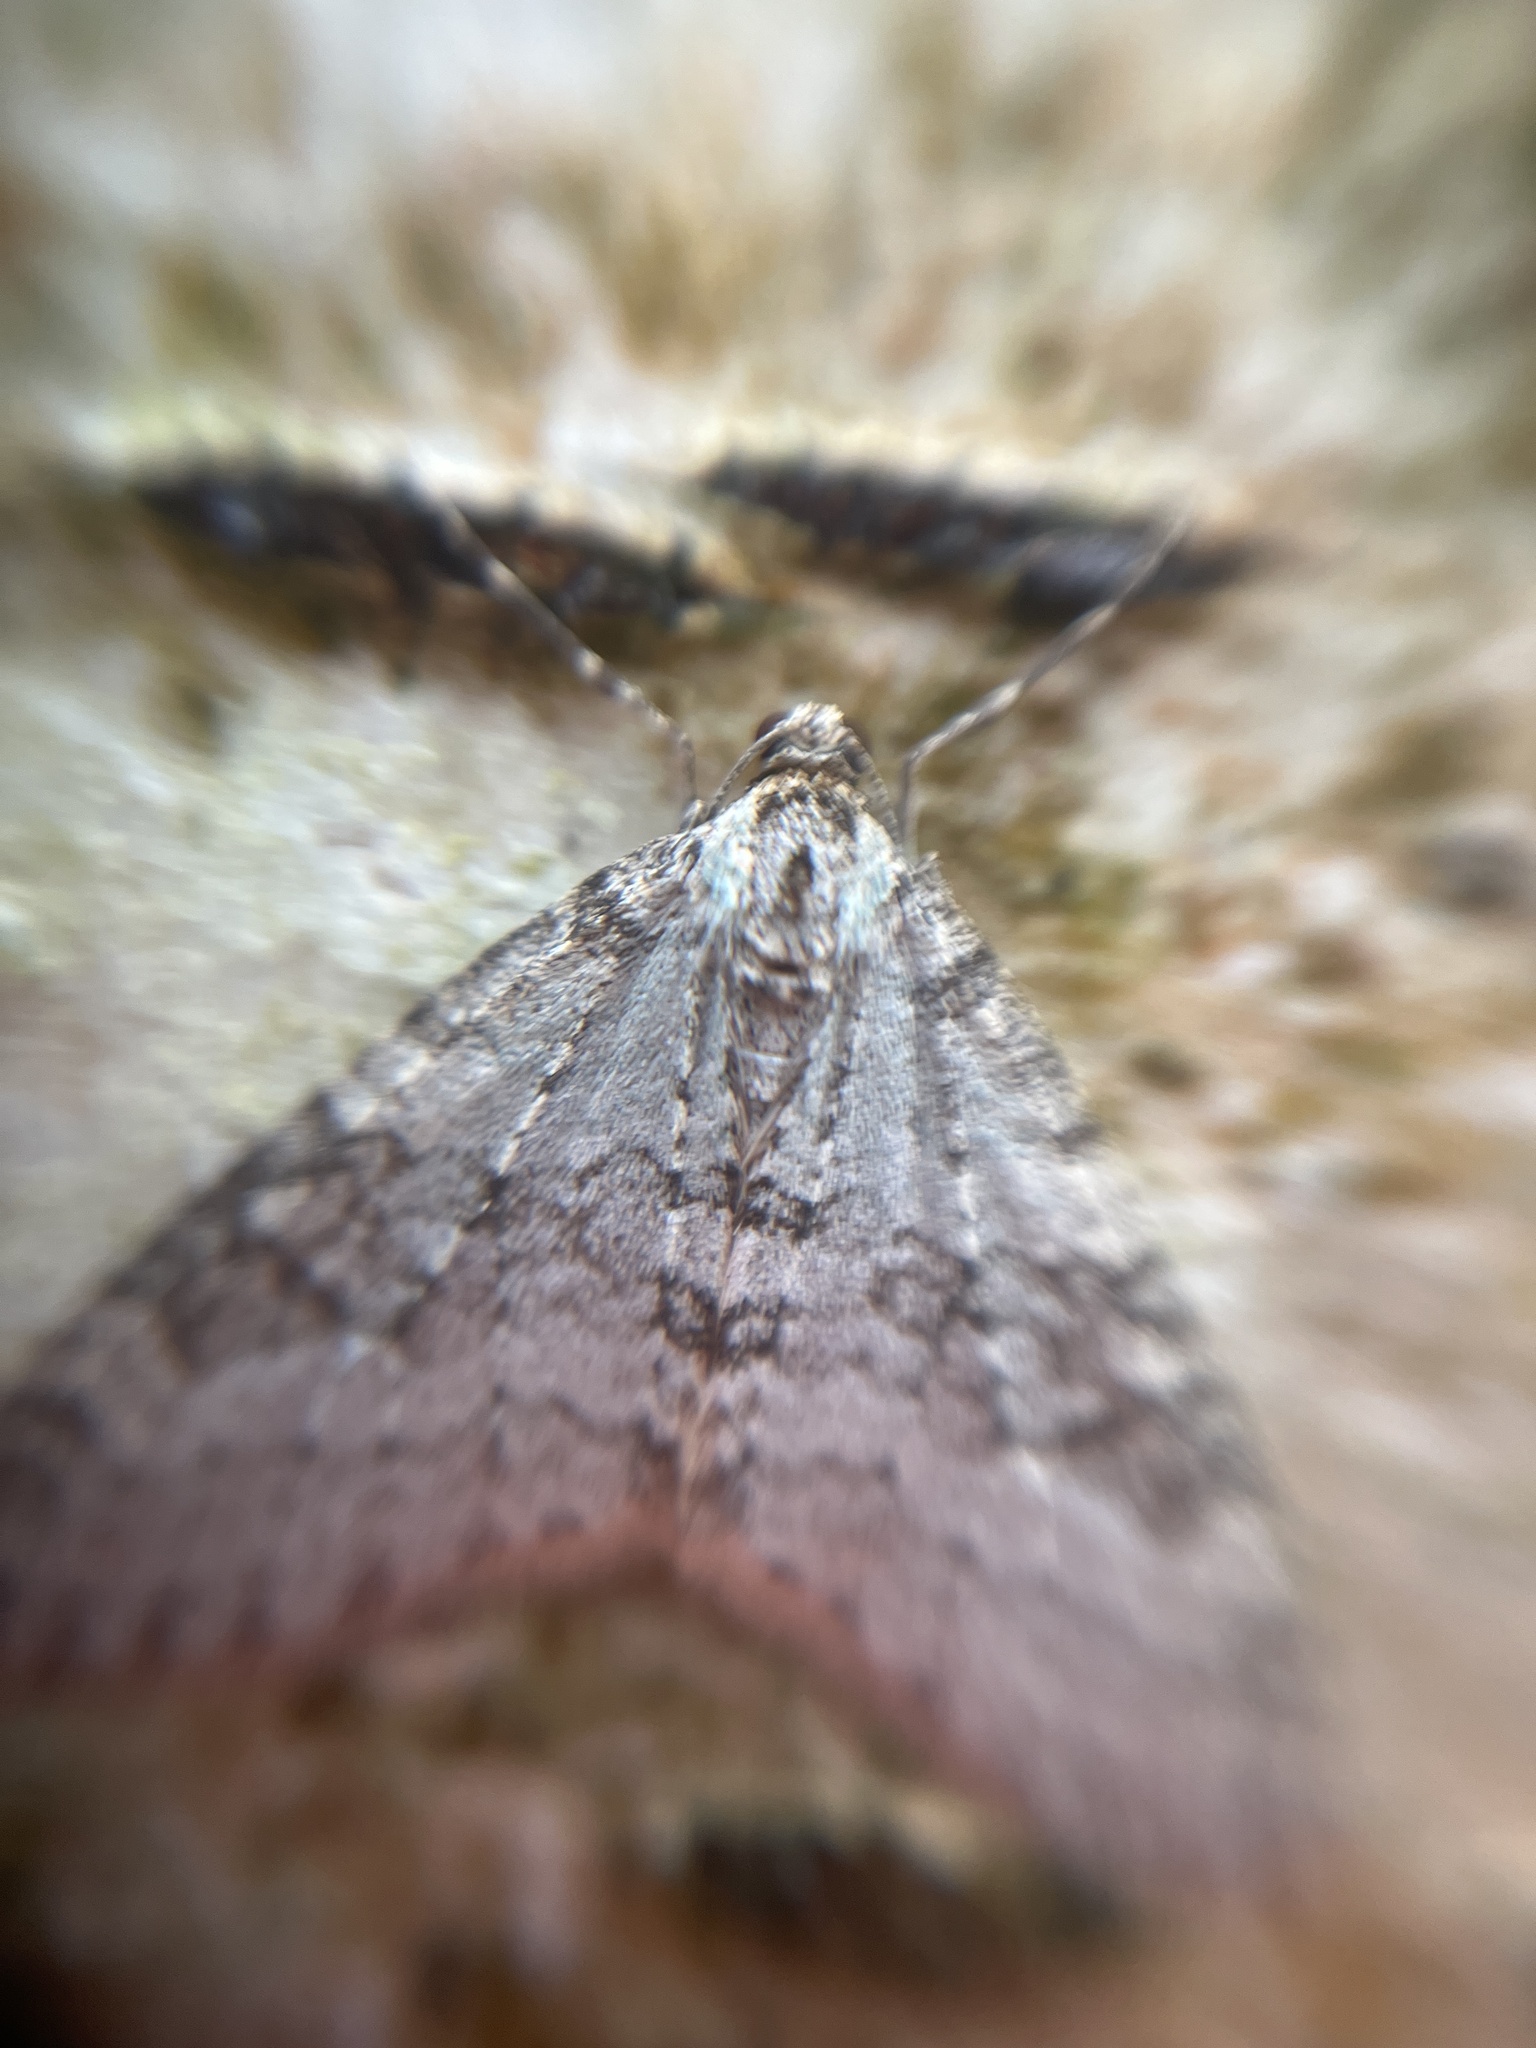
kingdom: Animalia
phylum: Arthropoda
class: Insecta
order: Lepidoptera
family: Geometridae
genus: Trichopteryx
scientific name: Trichopteryx carpinata
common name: Early tooth-striped
